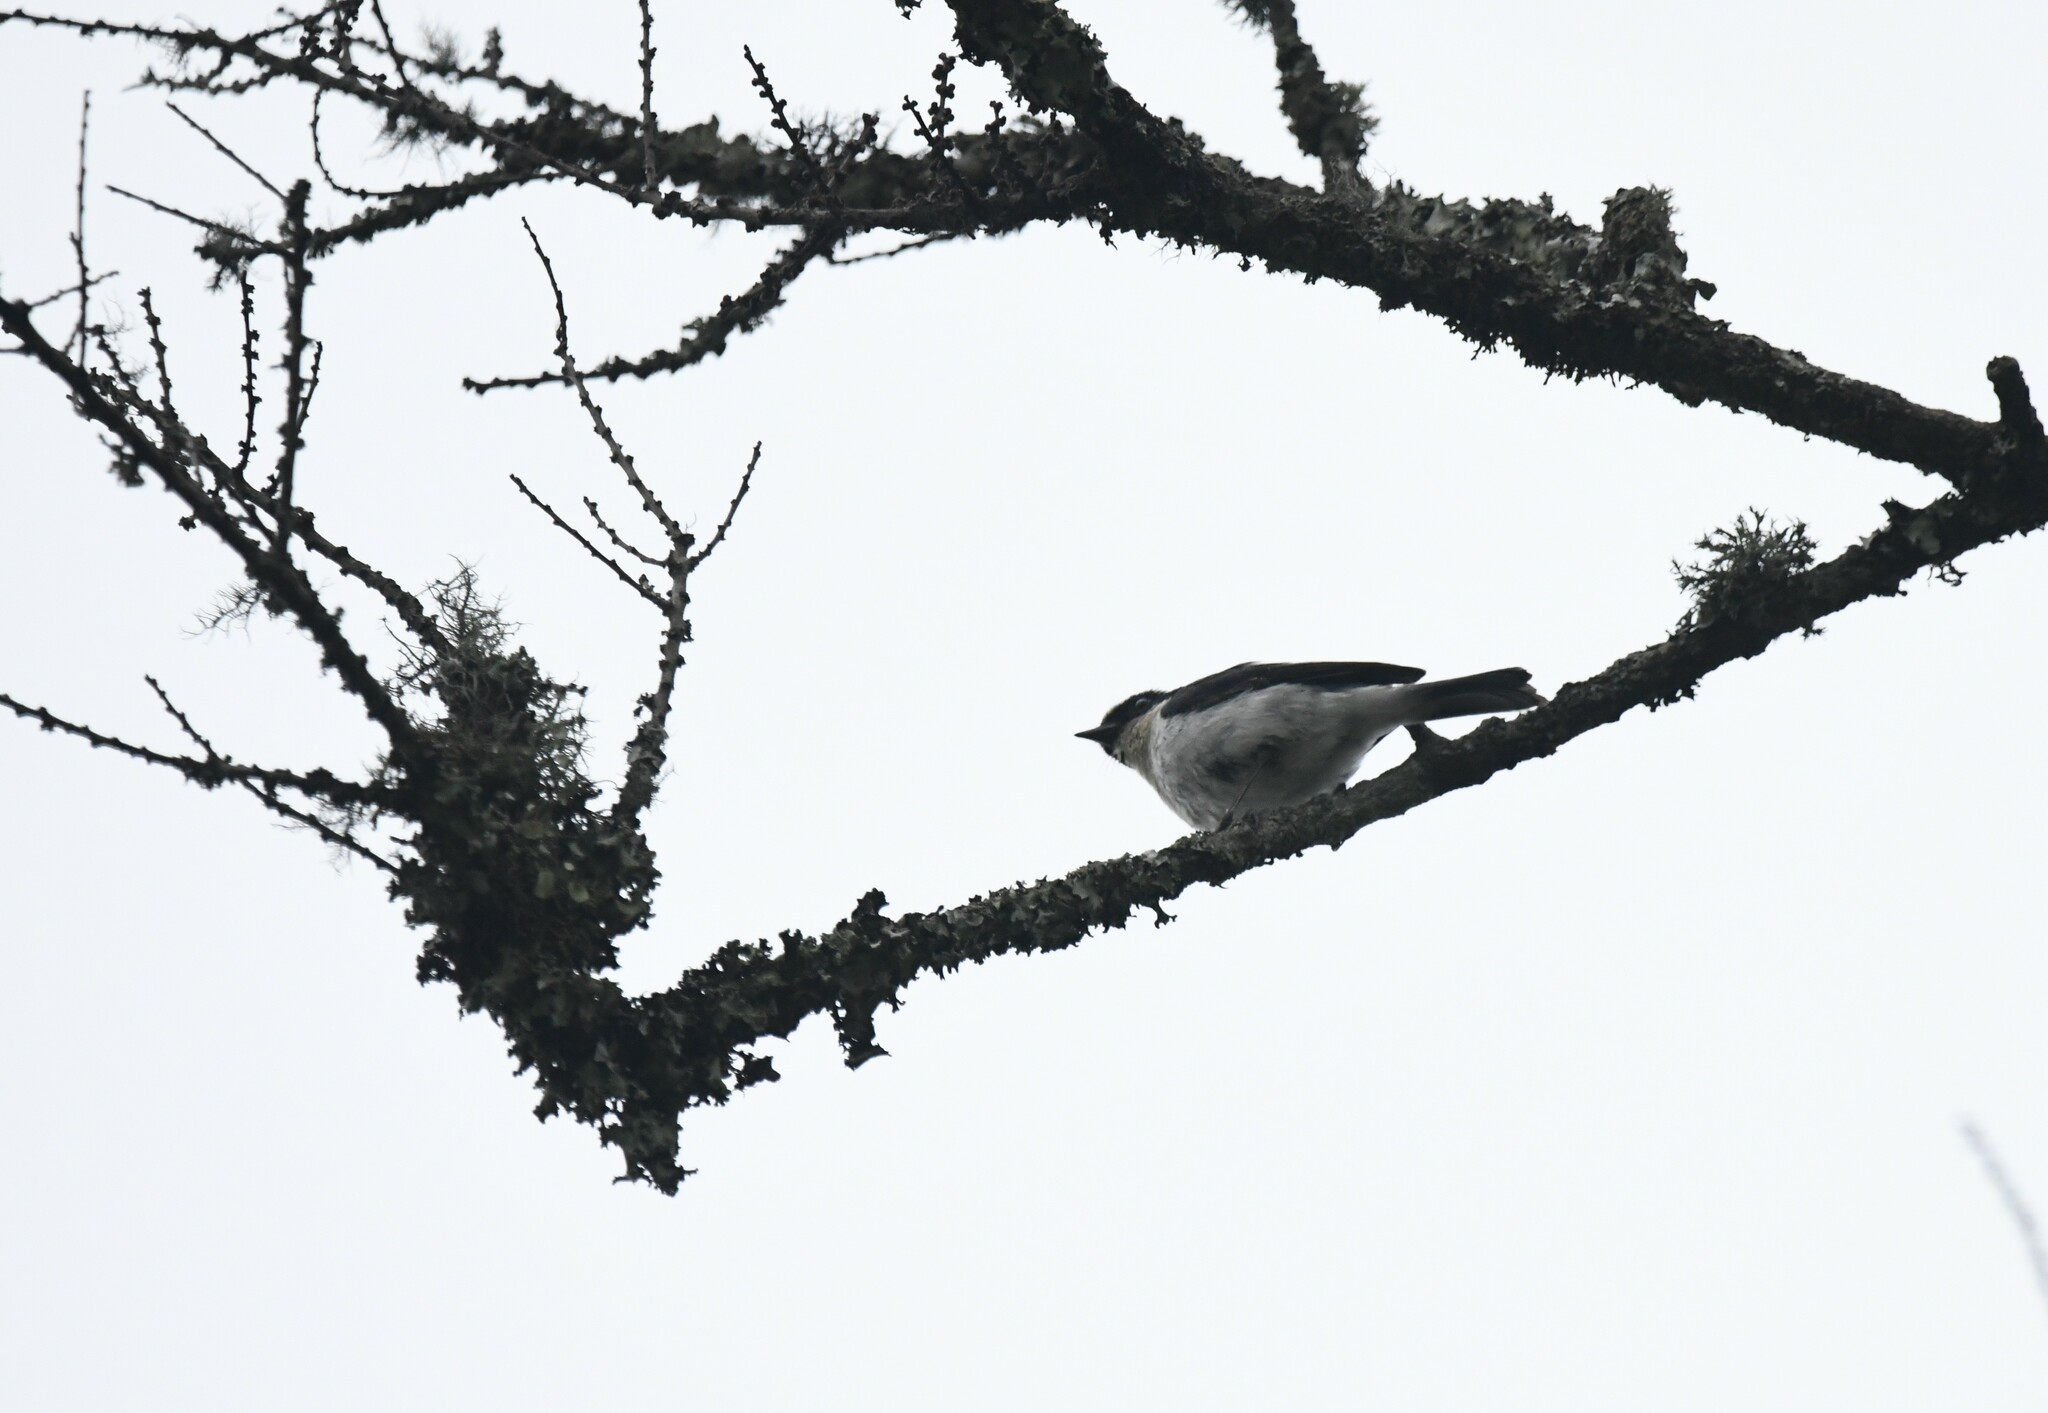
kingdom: Animalia
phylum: Chordata
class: Aves
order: Passeriformes
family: Muscicapidae
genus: Saxicola
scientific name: Saxicola ferreus
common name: Grey bush chat
